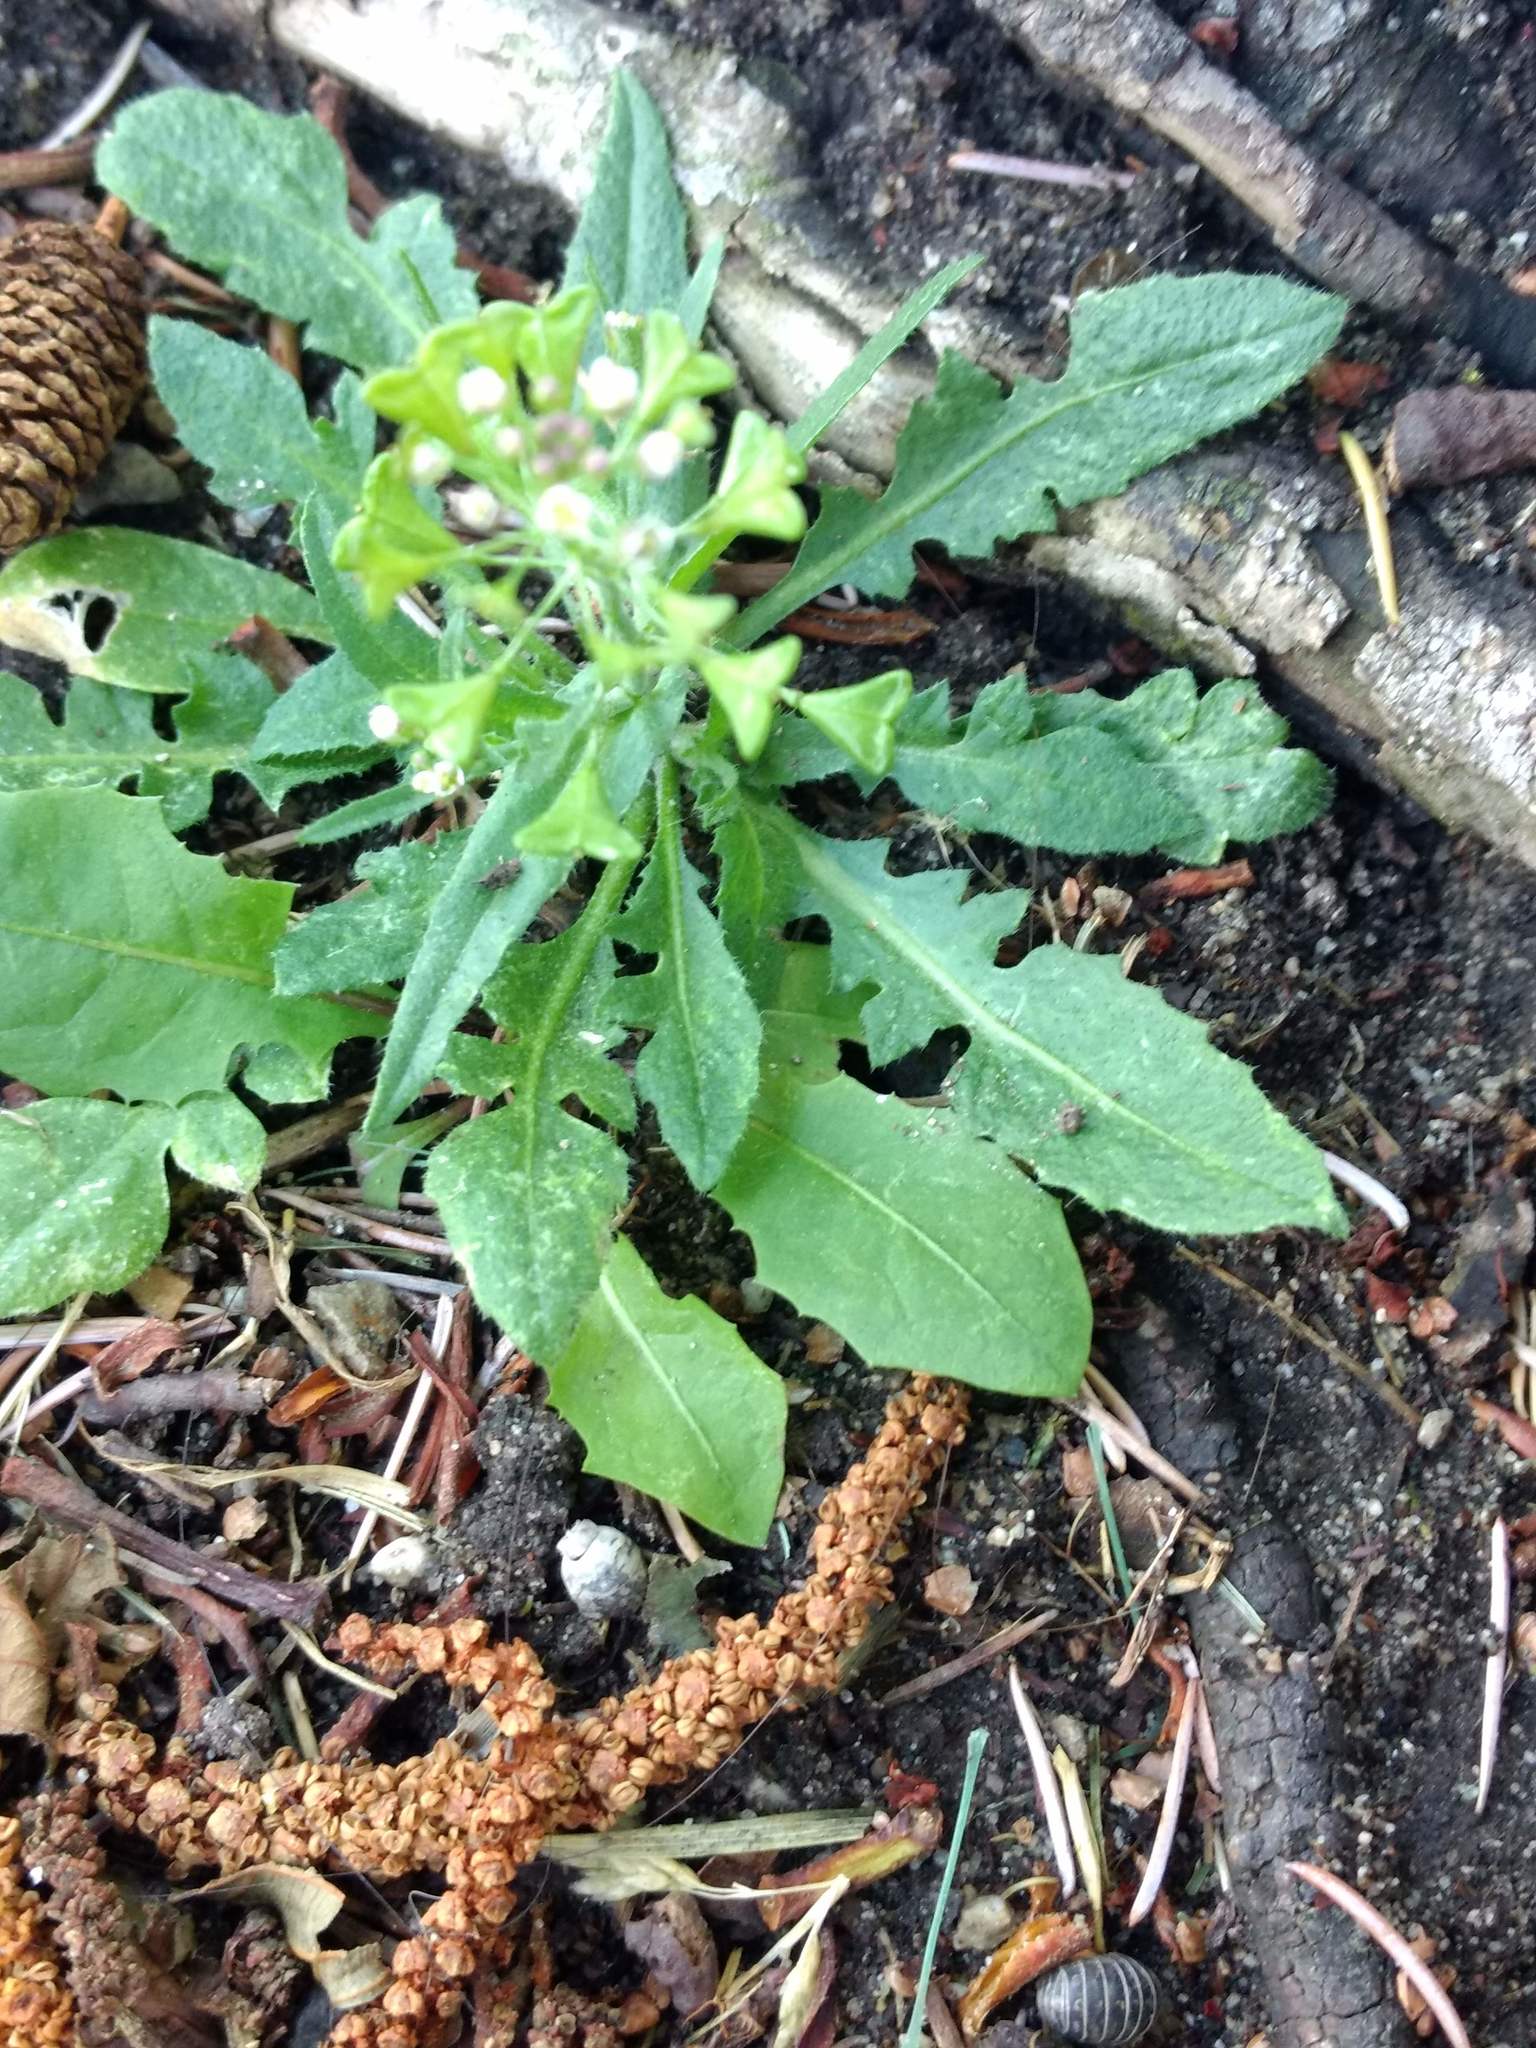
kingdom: Plantae
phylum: Tracheophyta
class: Magnoliopsida
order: Brassicales
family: Brassicaceae
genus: Capsella
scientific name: Capsella bursa-pastoris
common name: Shepherd's purse
